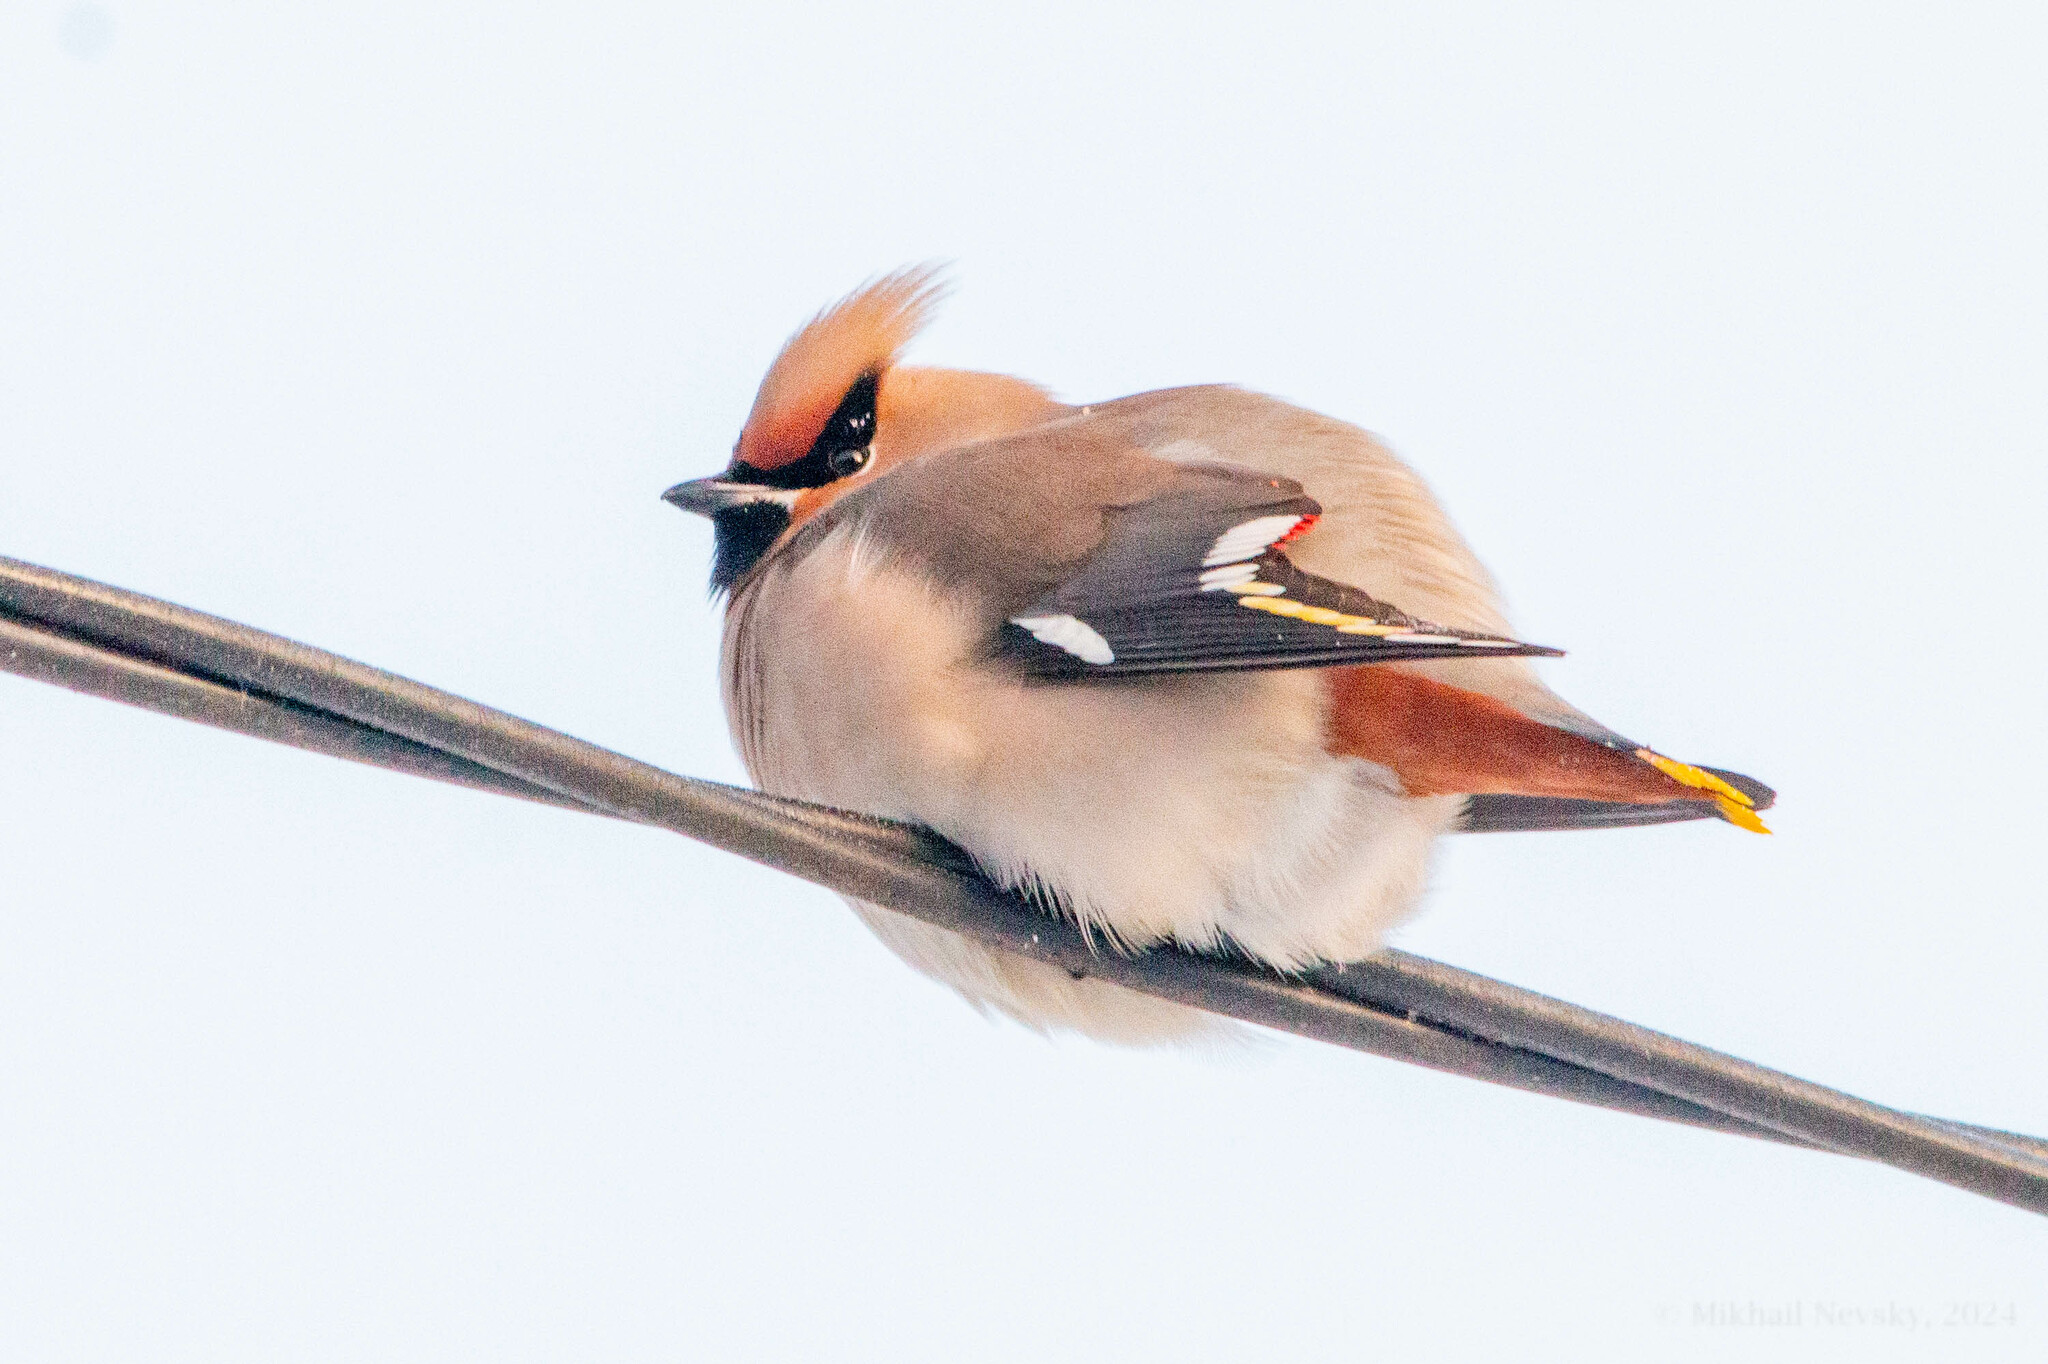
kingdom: Animalia
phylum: Chordata
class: Aves
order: Passeriformes
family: Bombycillidae
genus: Bombycilla
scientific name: Bombycilla garrulus
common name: Bohemian waxwing
